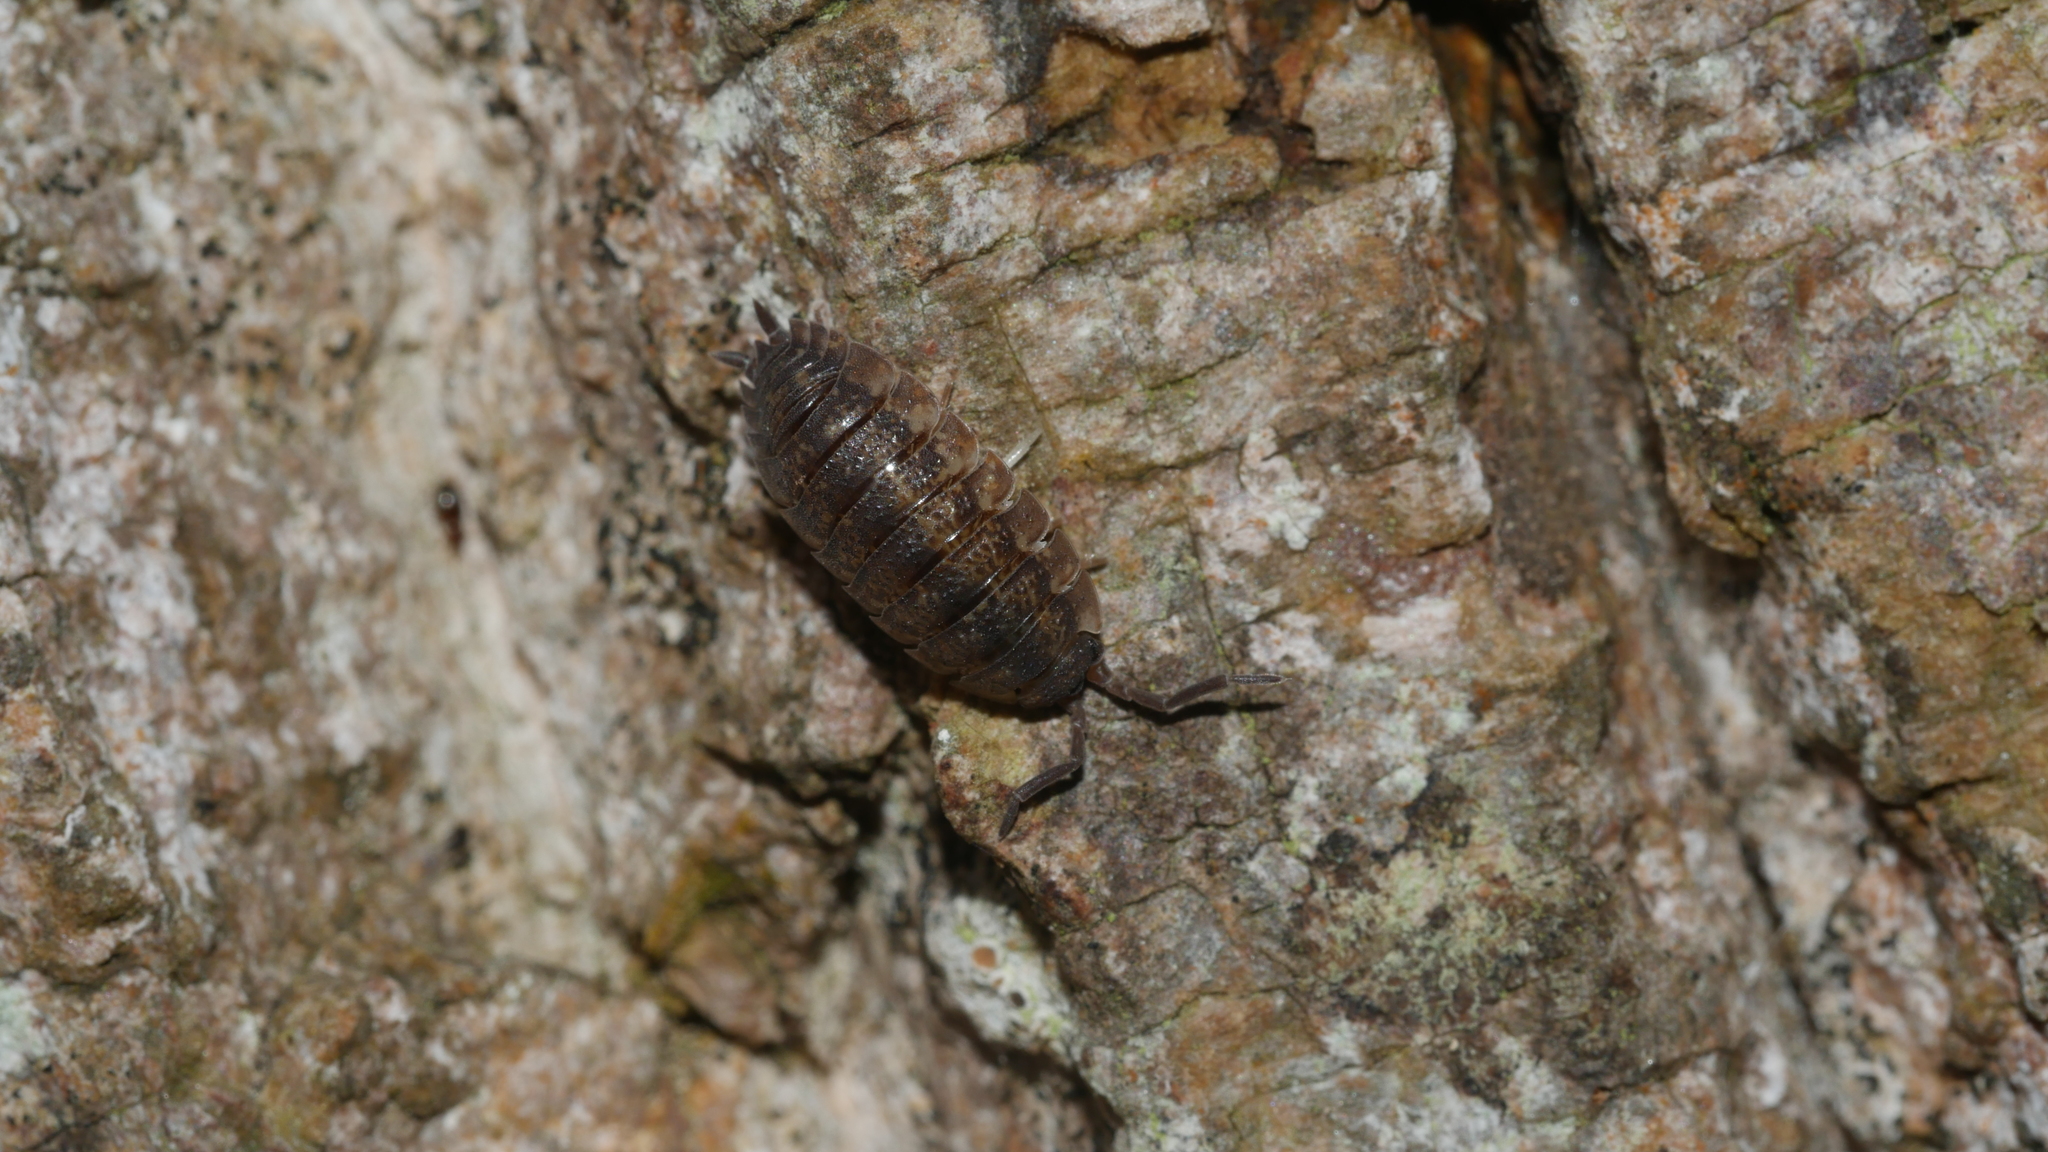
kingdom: Animalia
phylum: Arthropoda
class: Malacostraca
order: Isopoda
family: Porcellionidae
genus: Porcellio
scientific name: Porcellio scaber
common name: Common rough woodlouse
